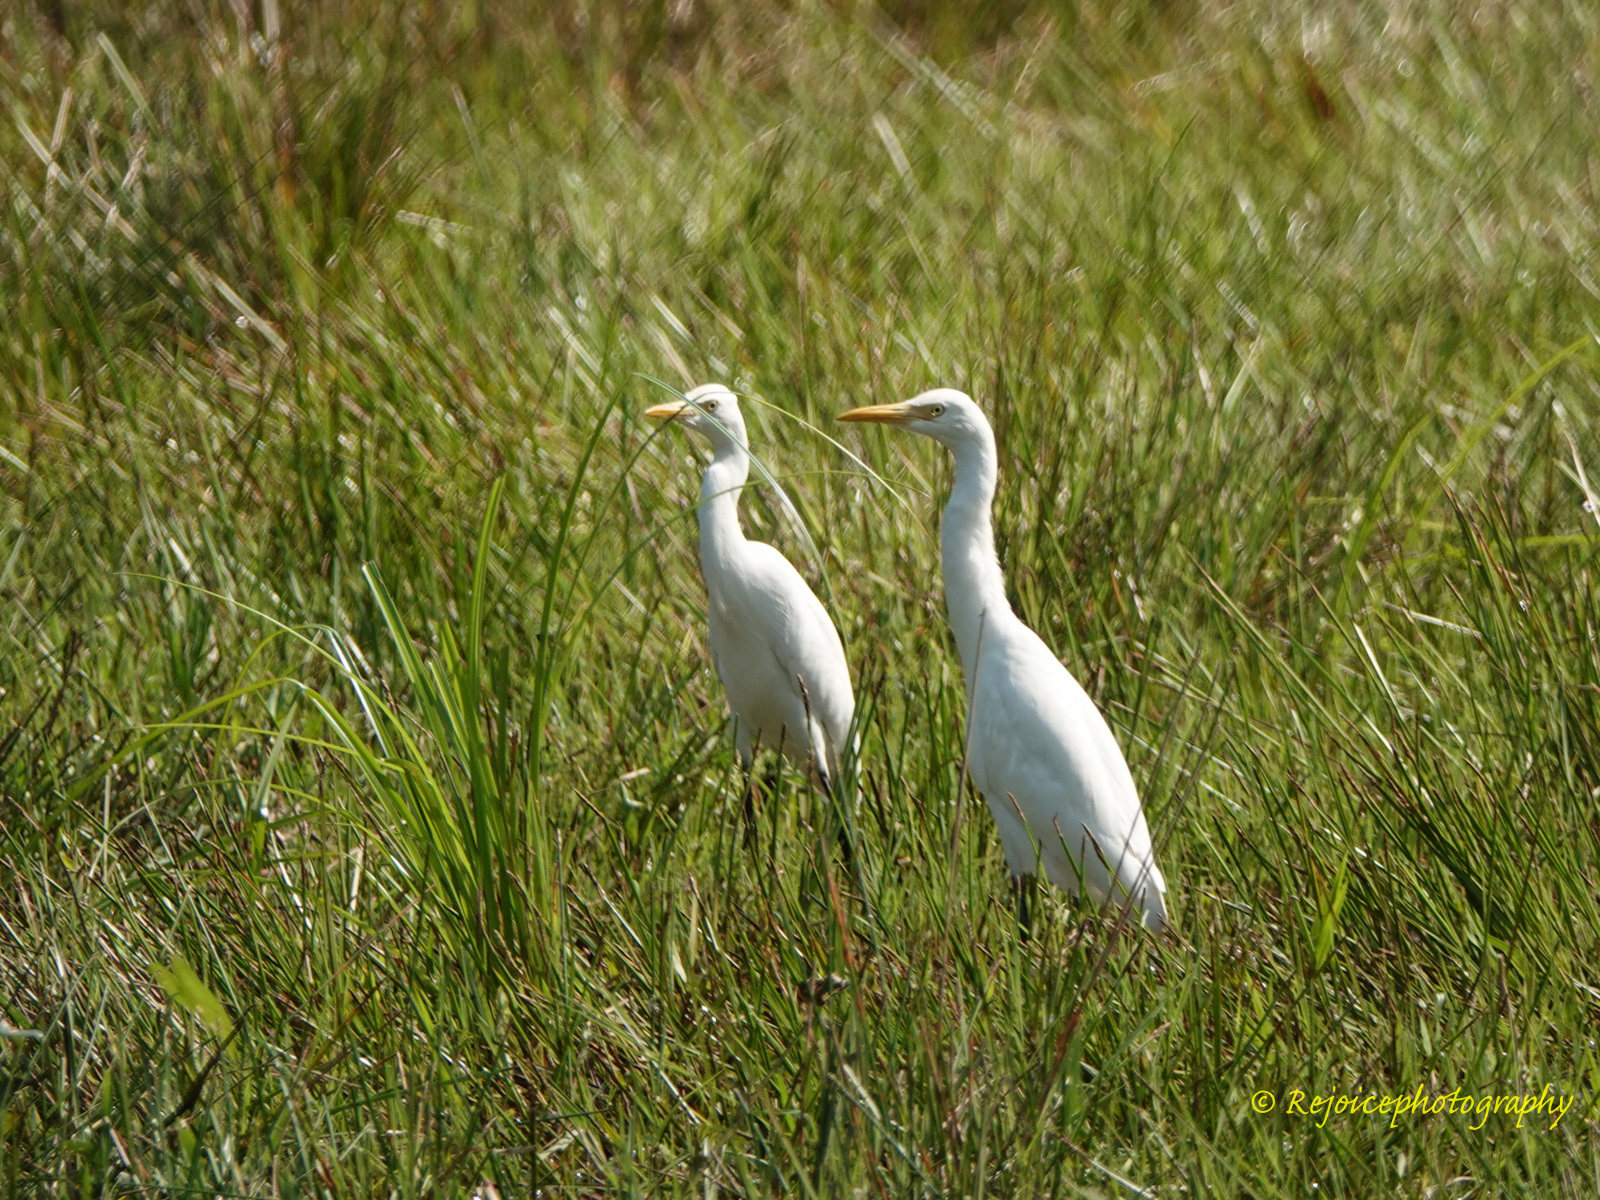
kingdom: Animalia
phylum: Chordata
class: Aves
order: Pelecaniformes
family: Ardeidae
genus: Bubulcus
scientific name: Bubulcus coromandus
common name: Eastern cattle egret
